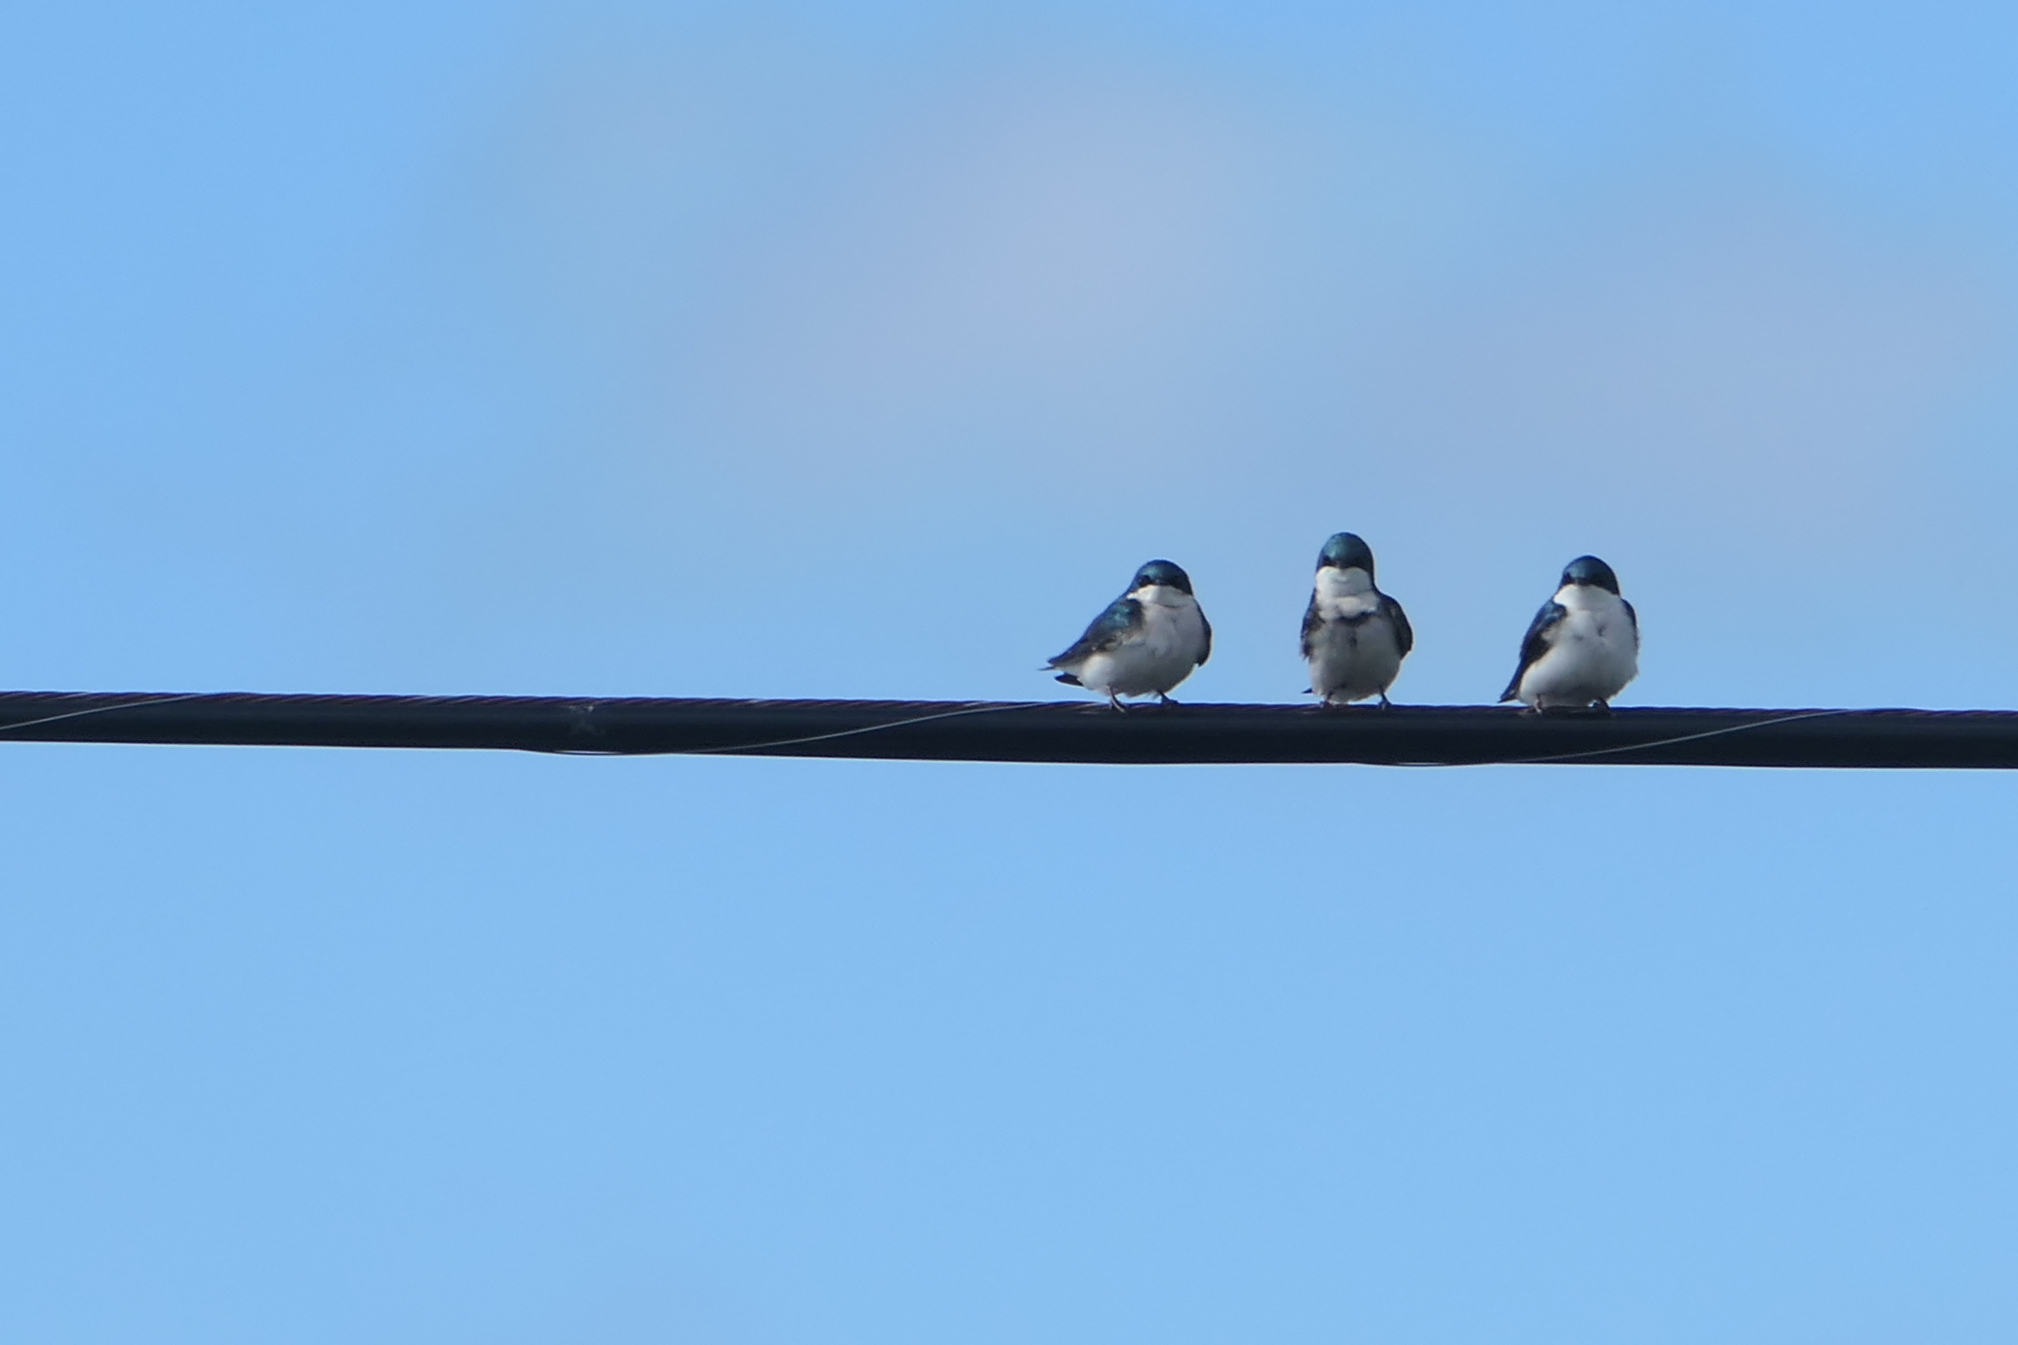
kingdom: Animalia
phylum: Chordata
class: Aves
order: Passeriformes
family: Hirundinidae
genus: Tachycineta
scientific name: Tachycineta bicolor
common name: Tree swallow
